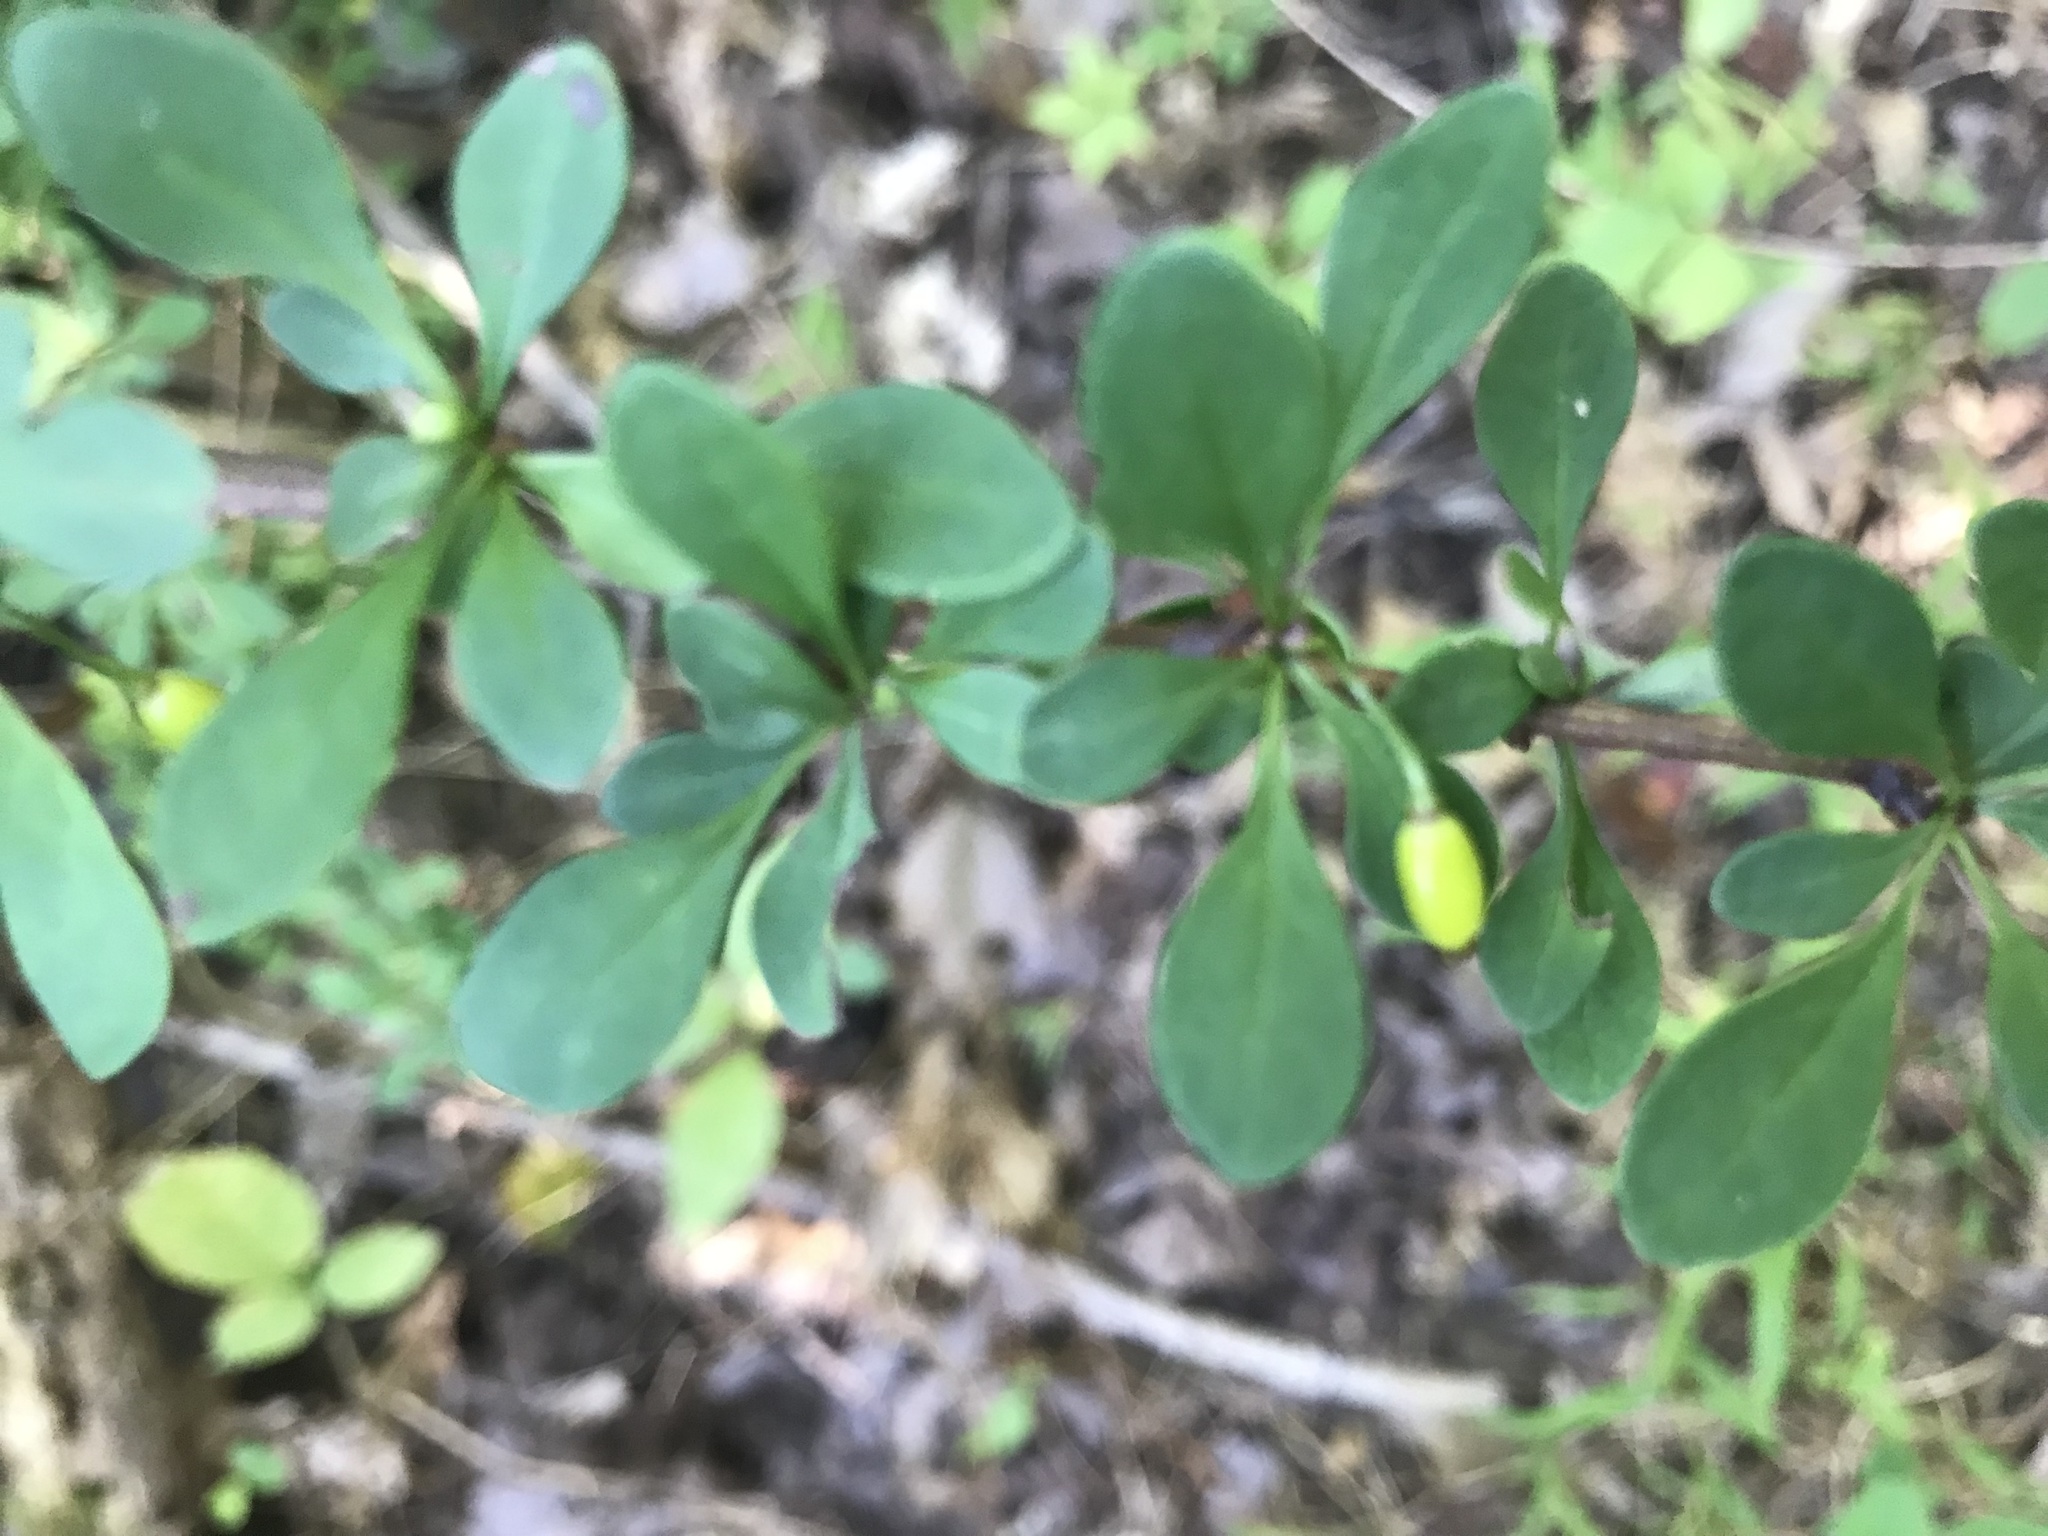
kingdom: Plantae
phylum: Tracheophyta
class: Magnoliopsida
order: Ranunculales
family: Berberidaceae
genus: Berberis
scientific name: Berberis thunbergii
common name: Japanese barberry
